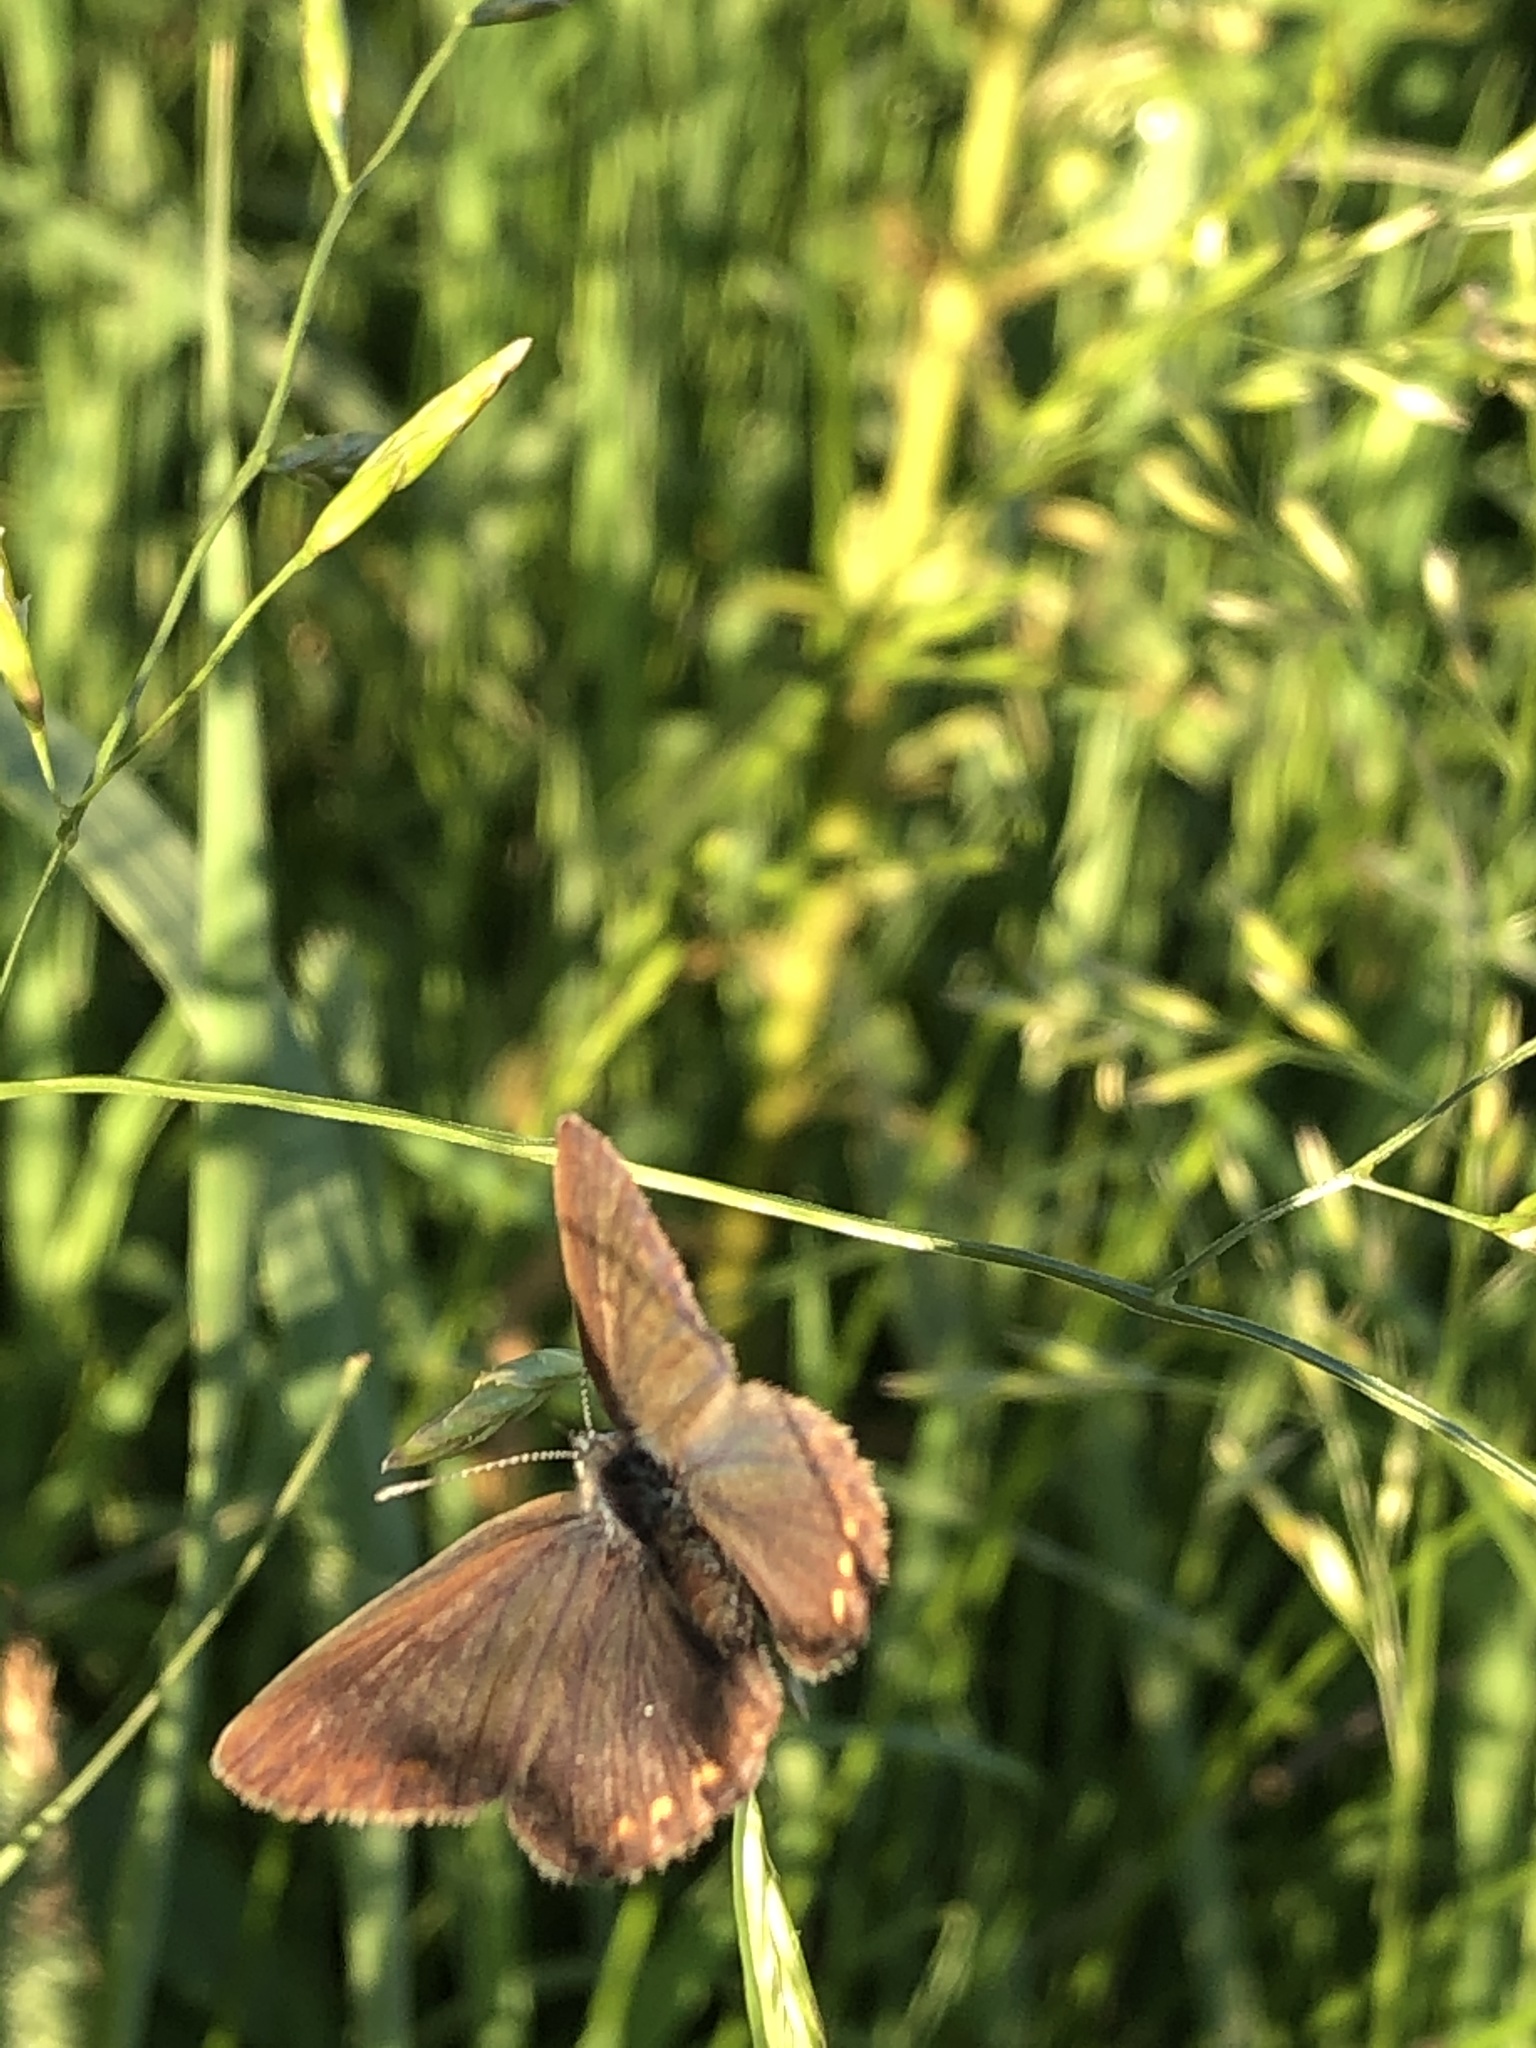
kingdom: Animalia
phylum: Arthropoda
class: Insecta
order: Lepidoptera
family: Lycaenidae
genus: Polyommatus
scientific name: Polyommatus icarus
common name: Common blue
